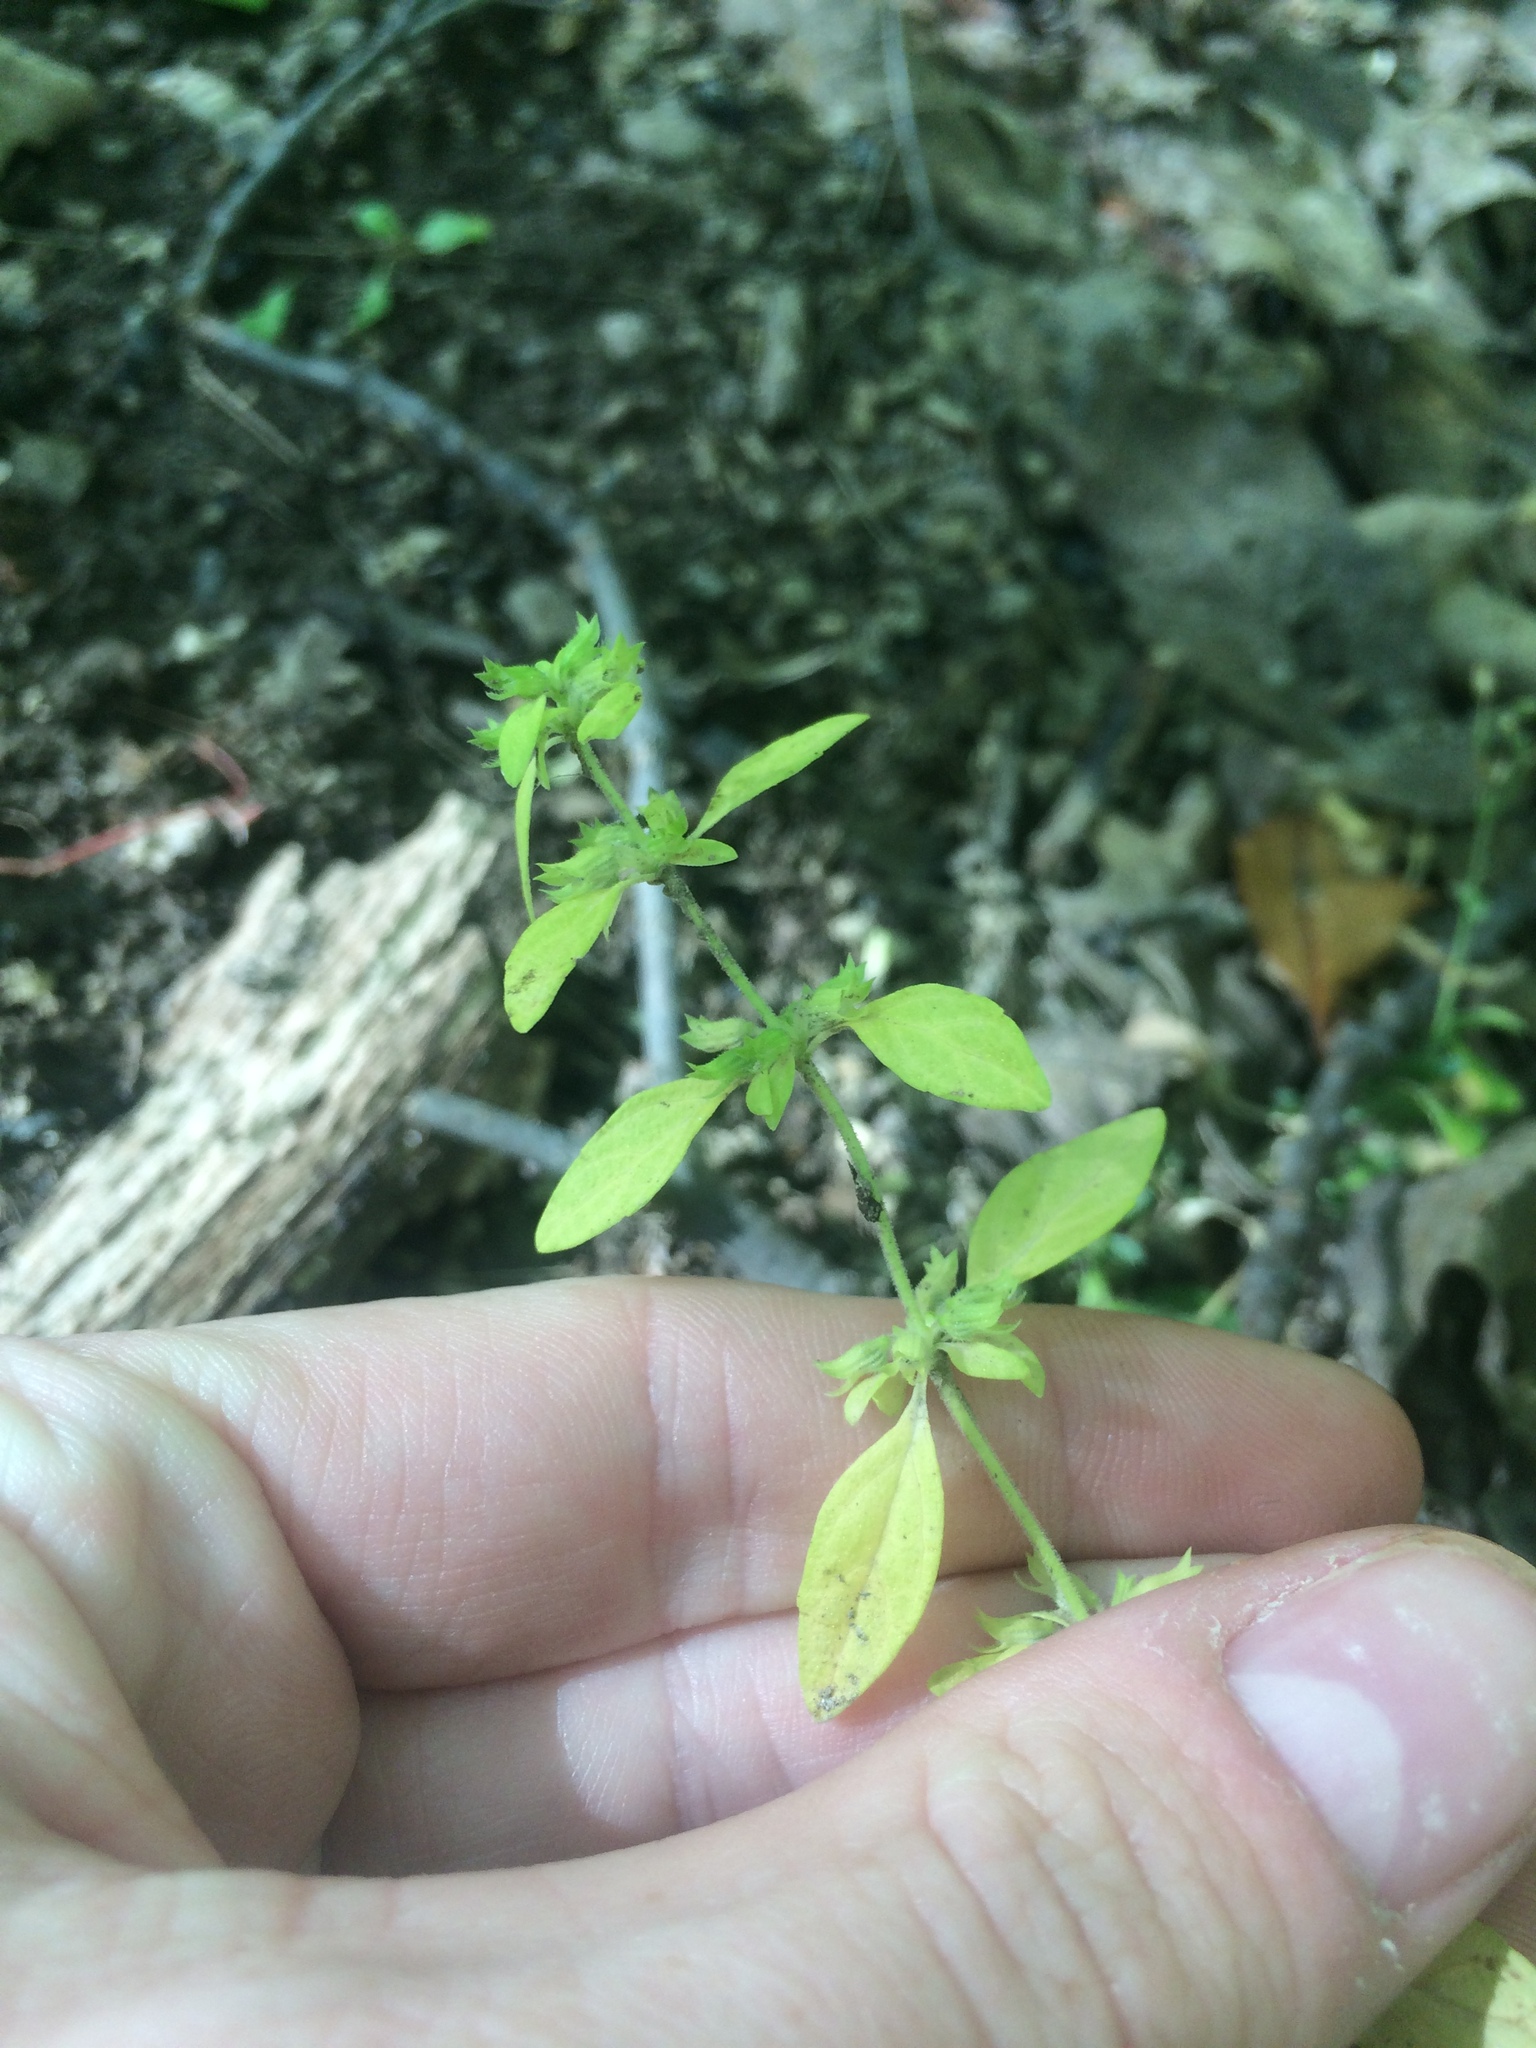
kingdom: Plantae
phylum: Tracheophyta
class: Magnoliopsida
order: Lamiales
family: Lamiaceae
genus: Hedeoma
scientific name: Hedeoma pulegioides
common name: American false pennyroyal
